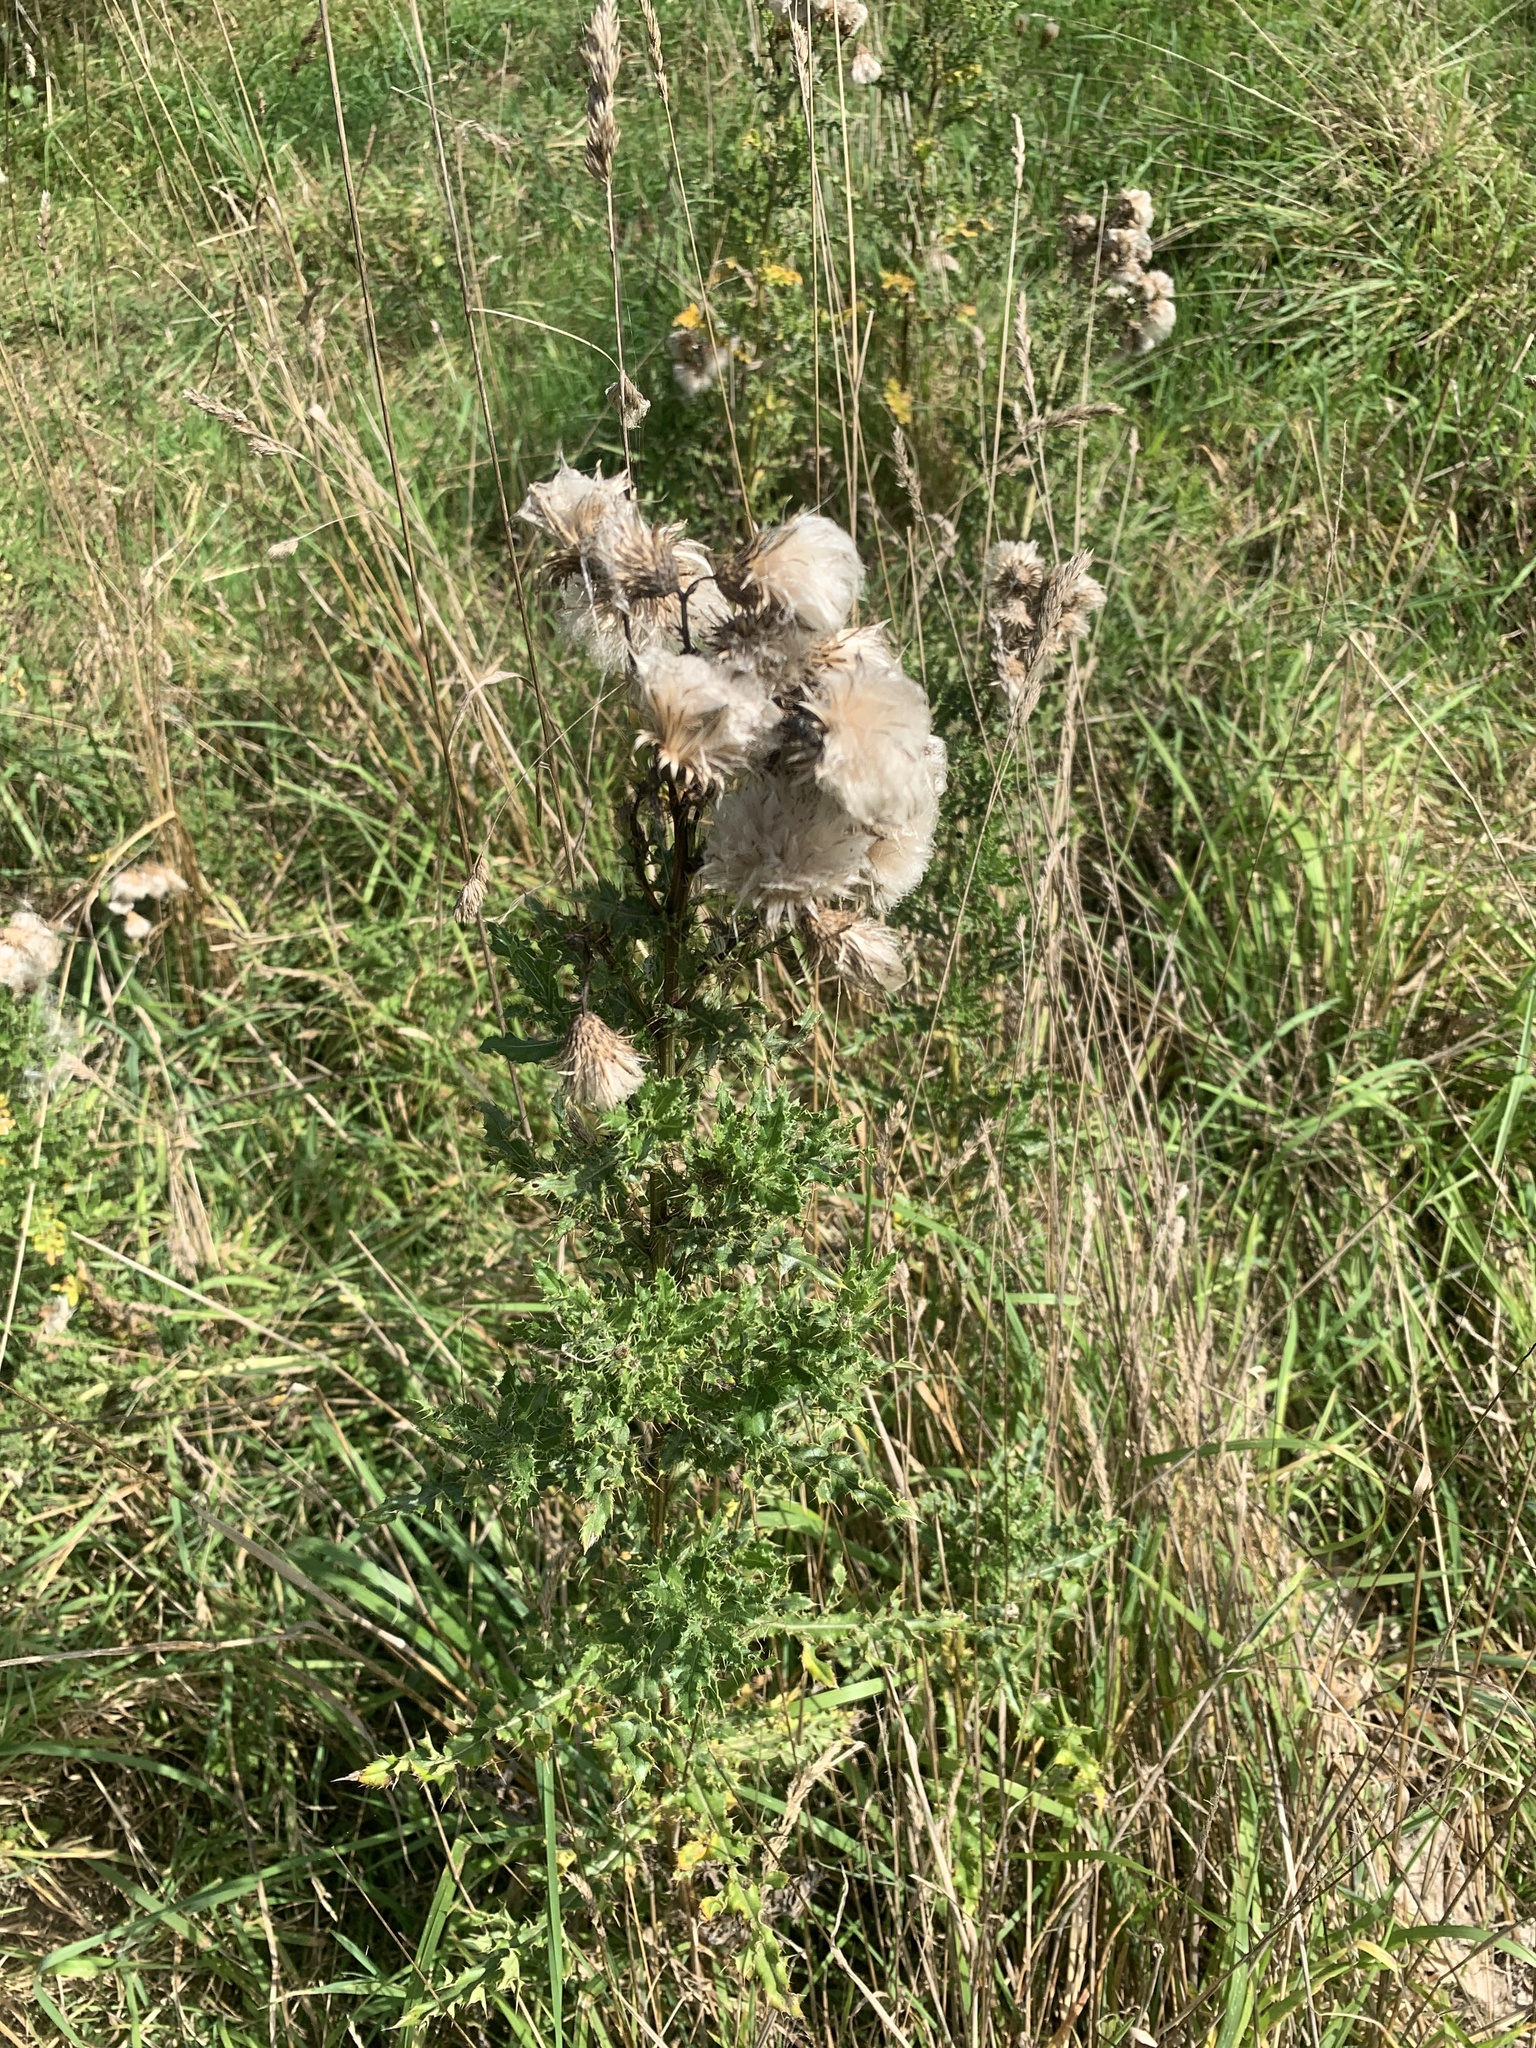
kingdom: Plantae
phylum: Tracheophyta
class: Magnoliopsida
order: Asterales
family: Asteraceae
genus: Cirsium
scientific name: Cirsium arvense
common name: Creeping thistle
